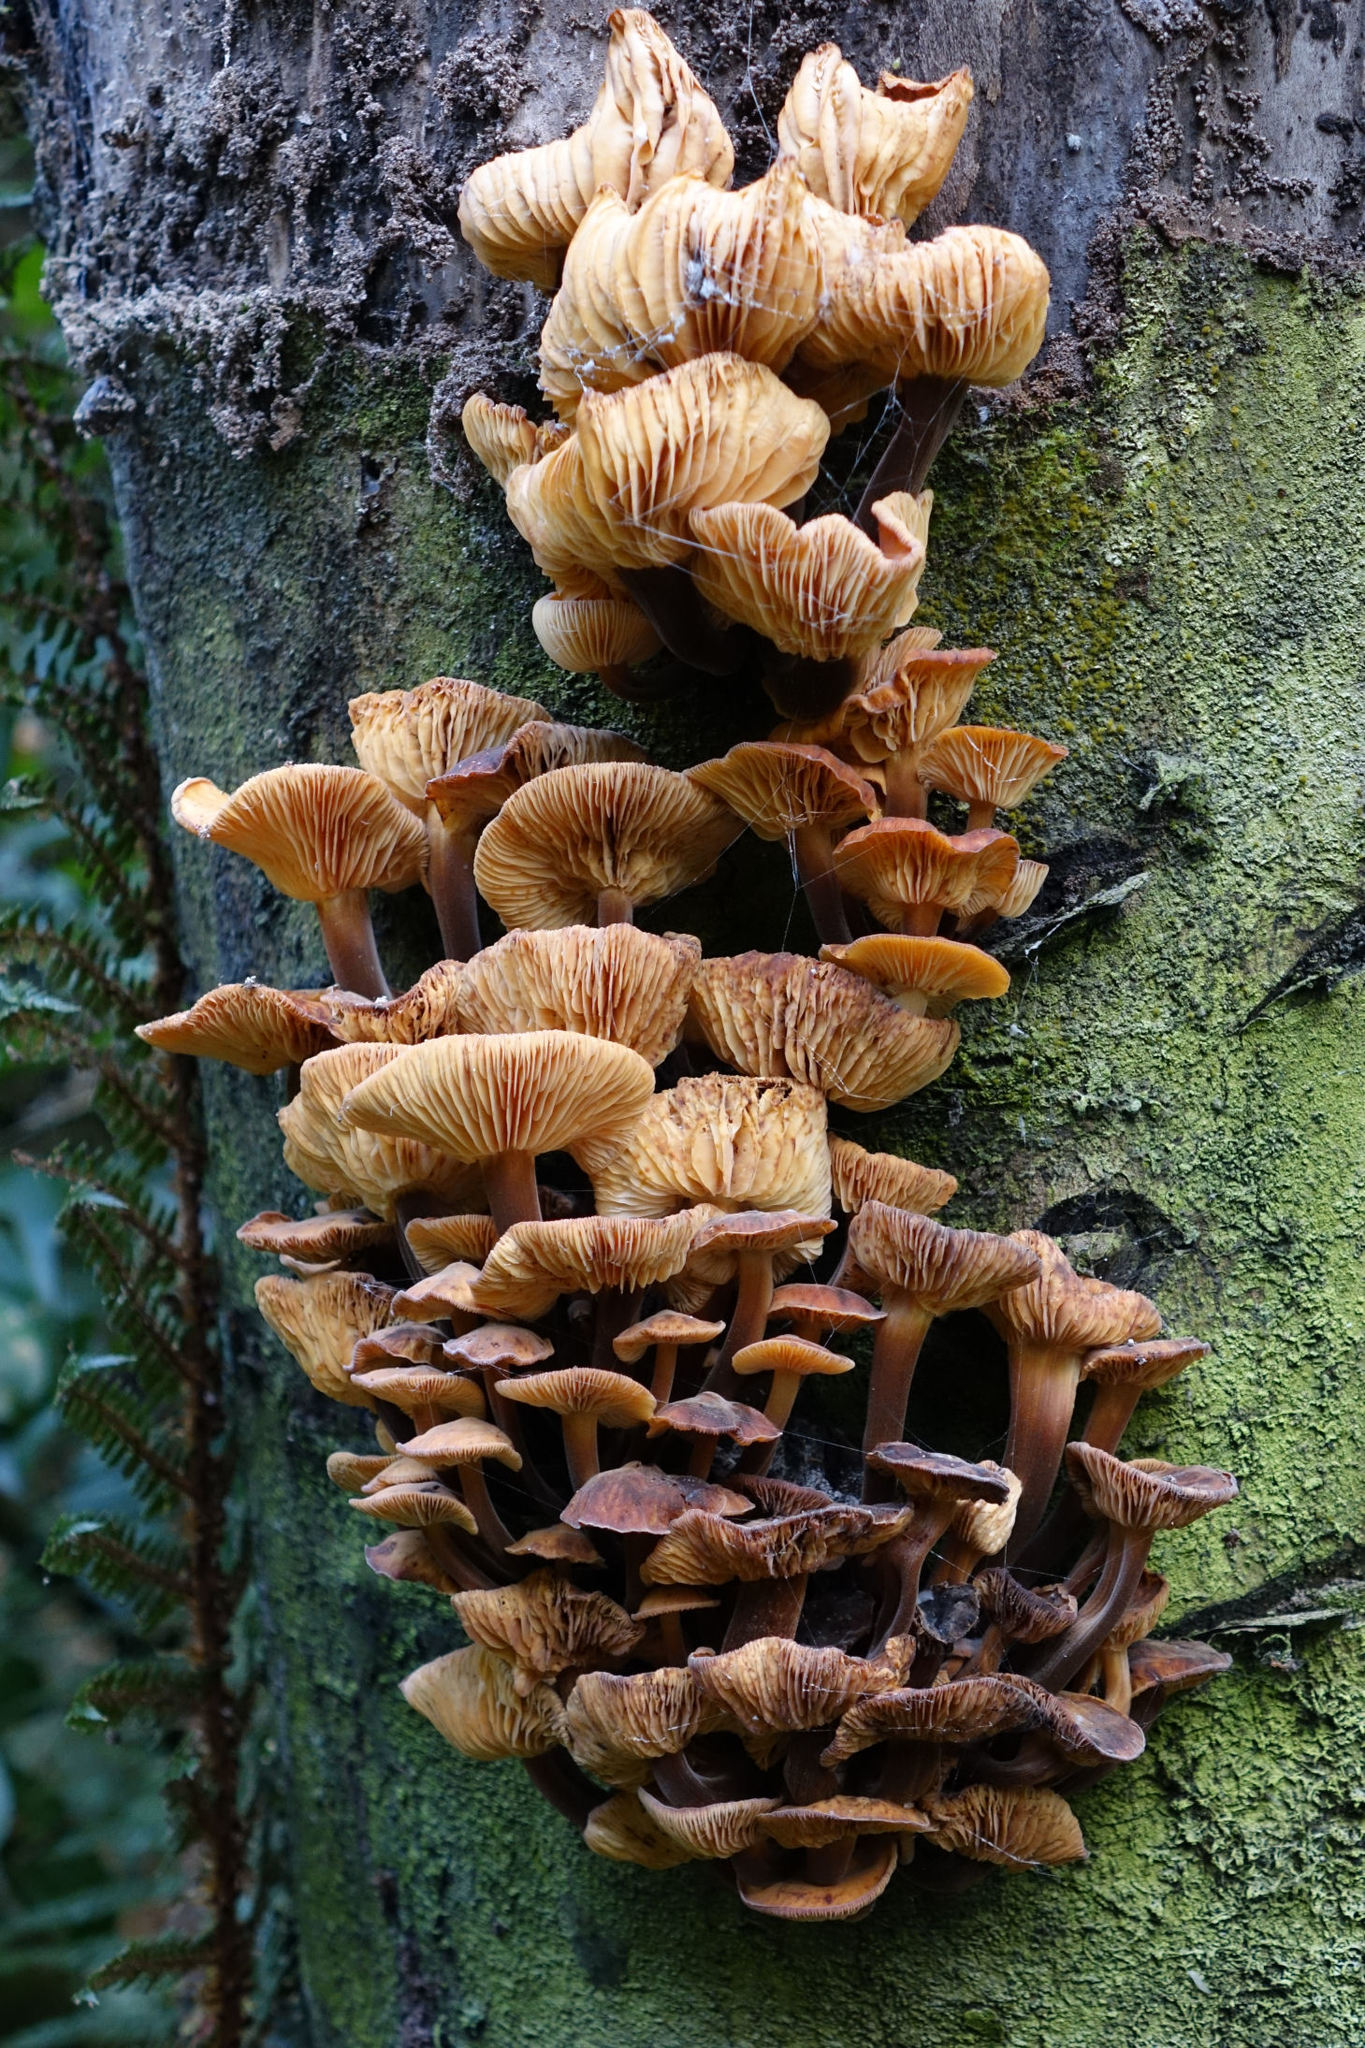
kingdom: Fungi
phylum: Basidiomycota
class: Agaricomycetes
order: Agaricales
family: Physalacriaceae
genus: Flammulina
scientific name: Flammulina velutipes
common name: Velvet shank
